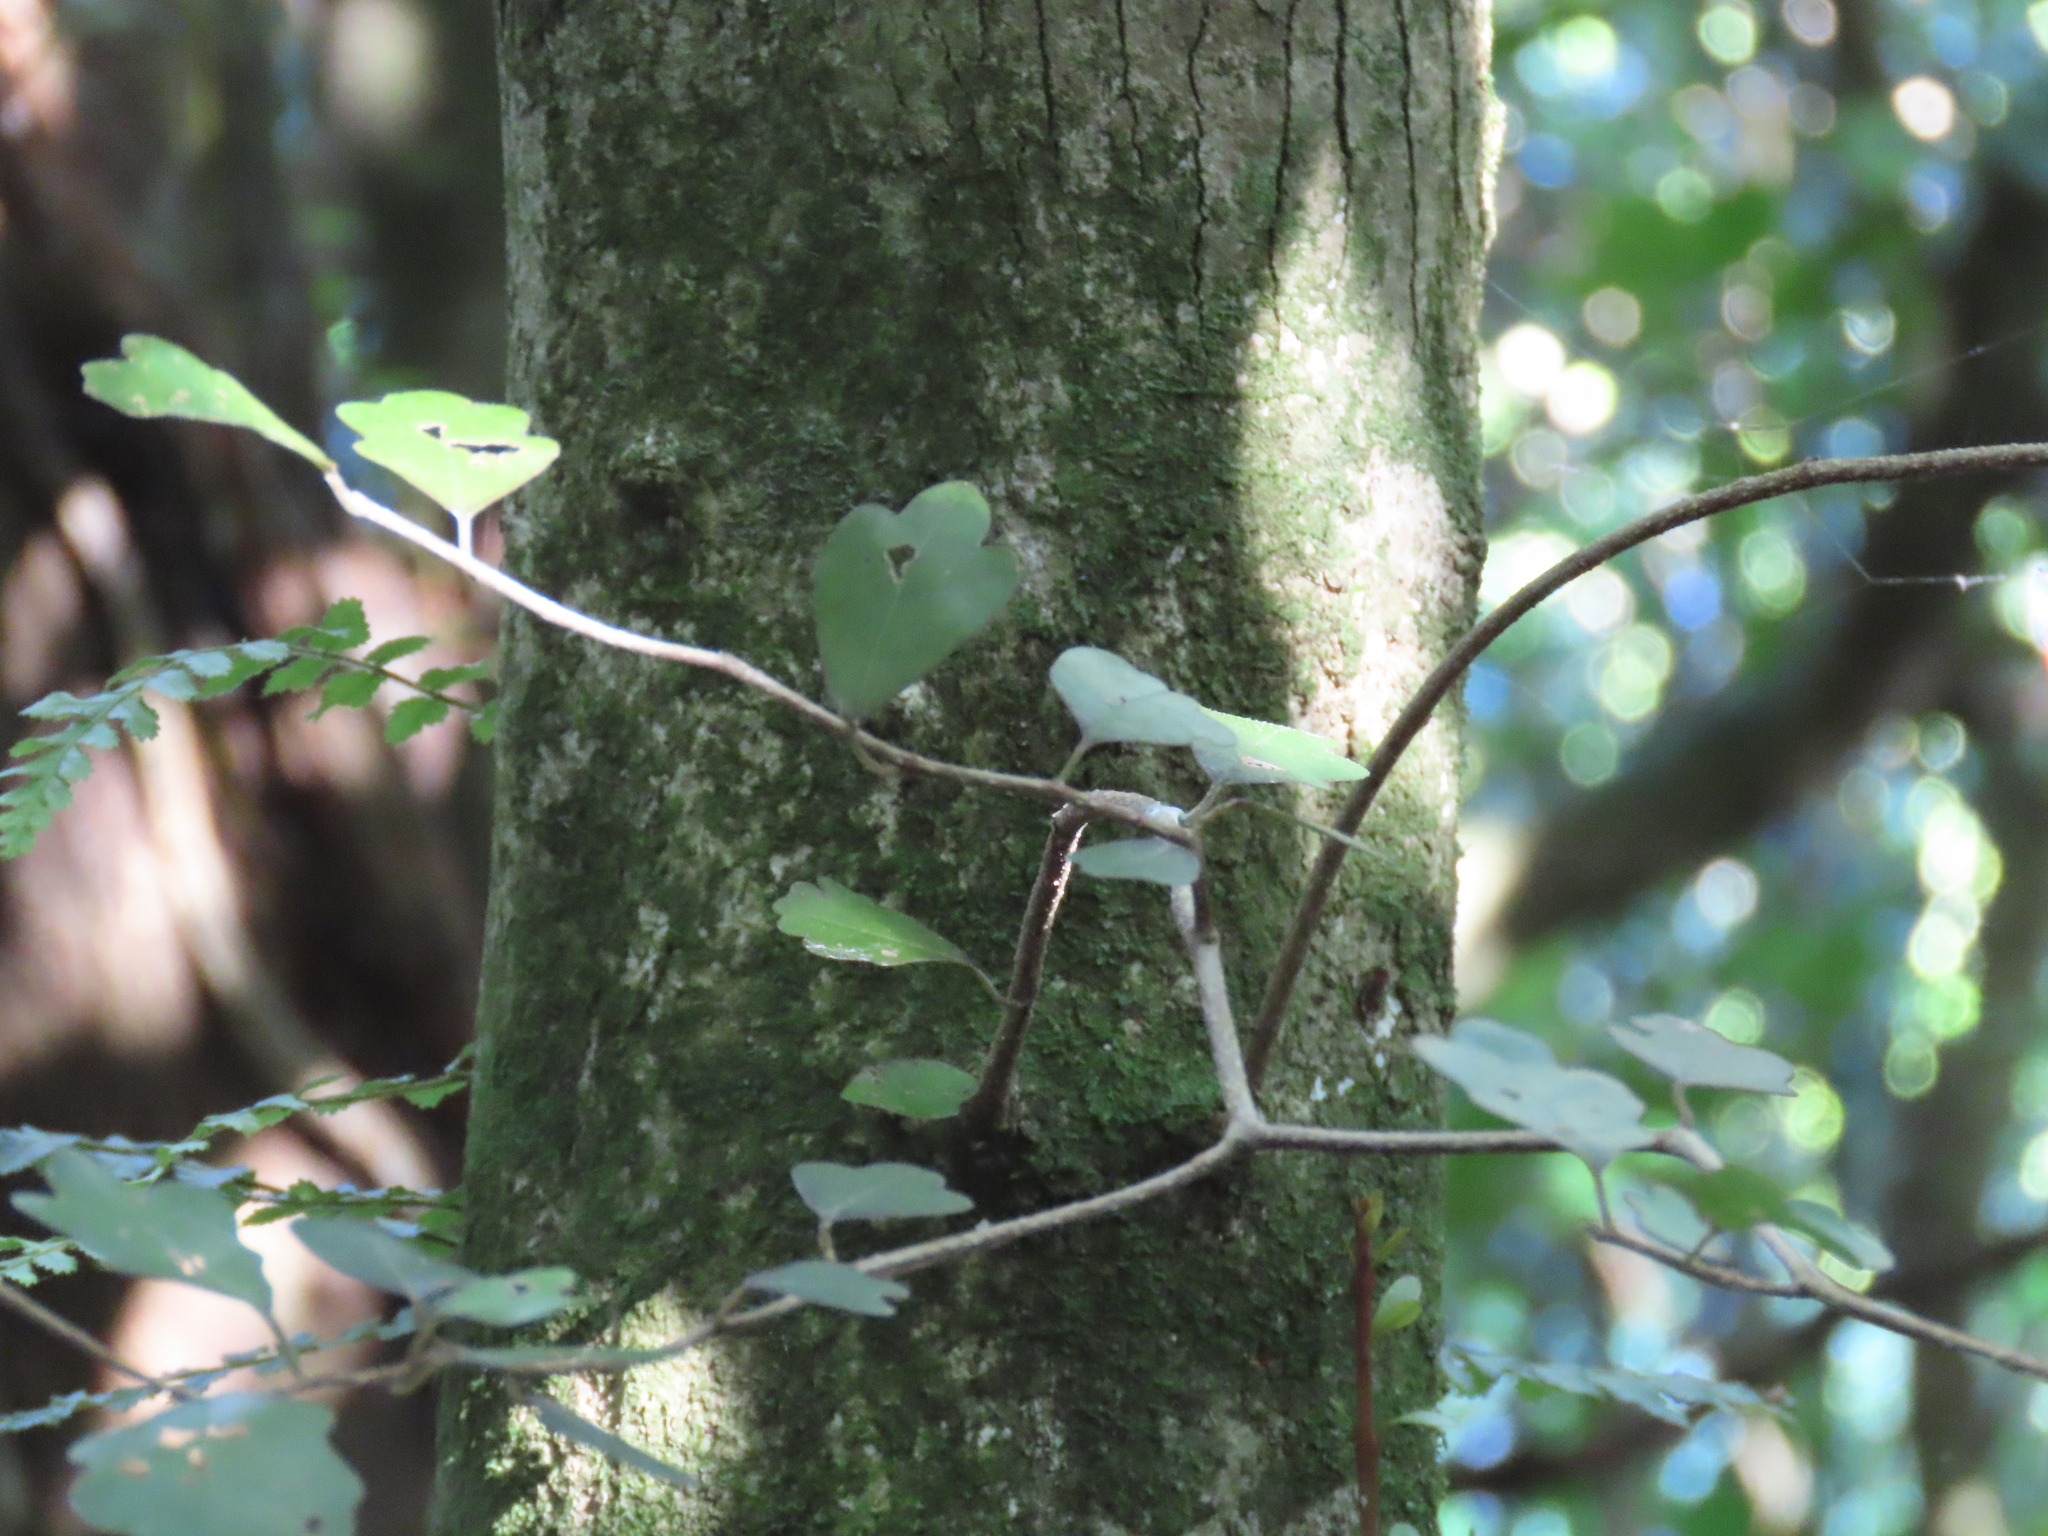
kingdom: Plantae
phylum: Tracheophyta
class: Magnoliopsida
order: Apiales
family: Pennantiaceae
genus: Pennantia
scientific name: Pennantia corymbosa
